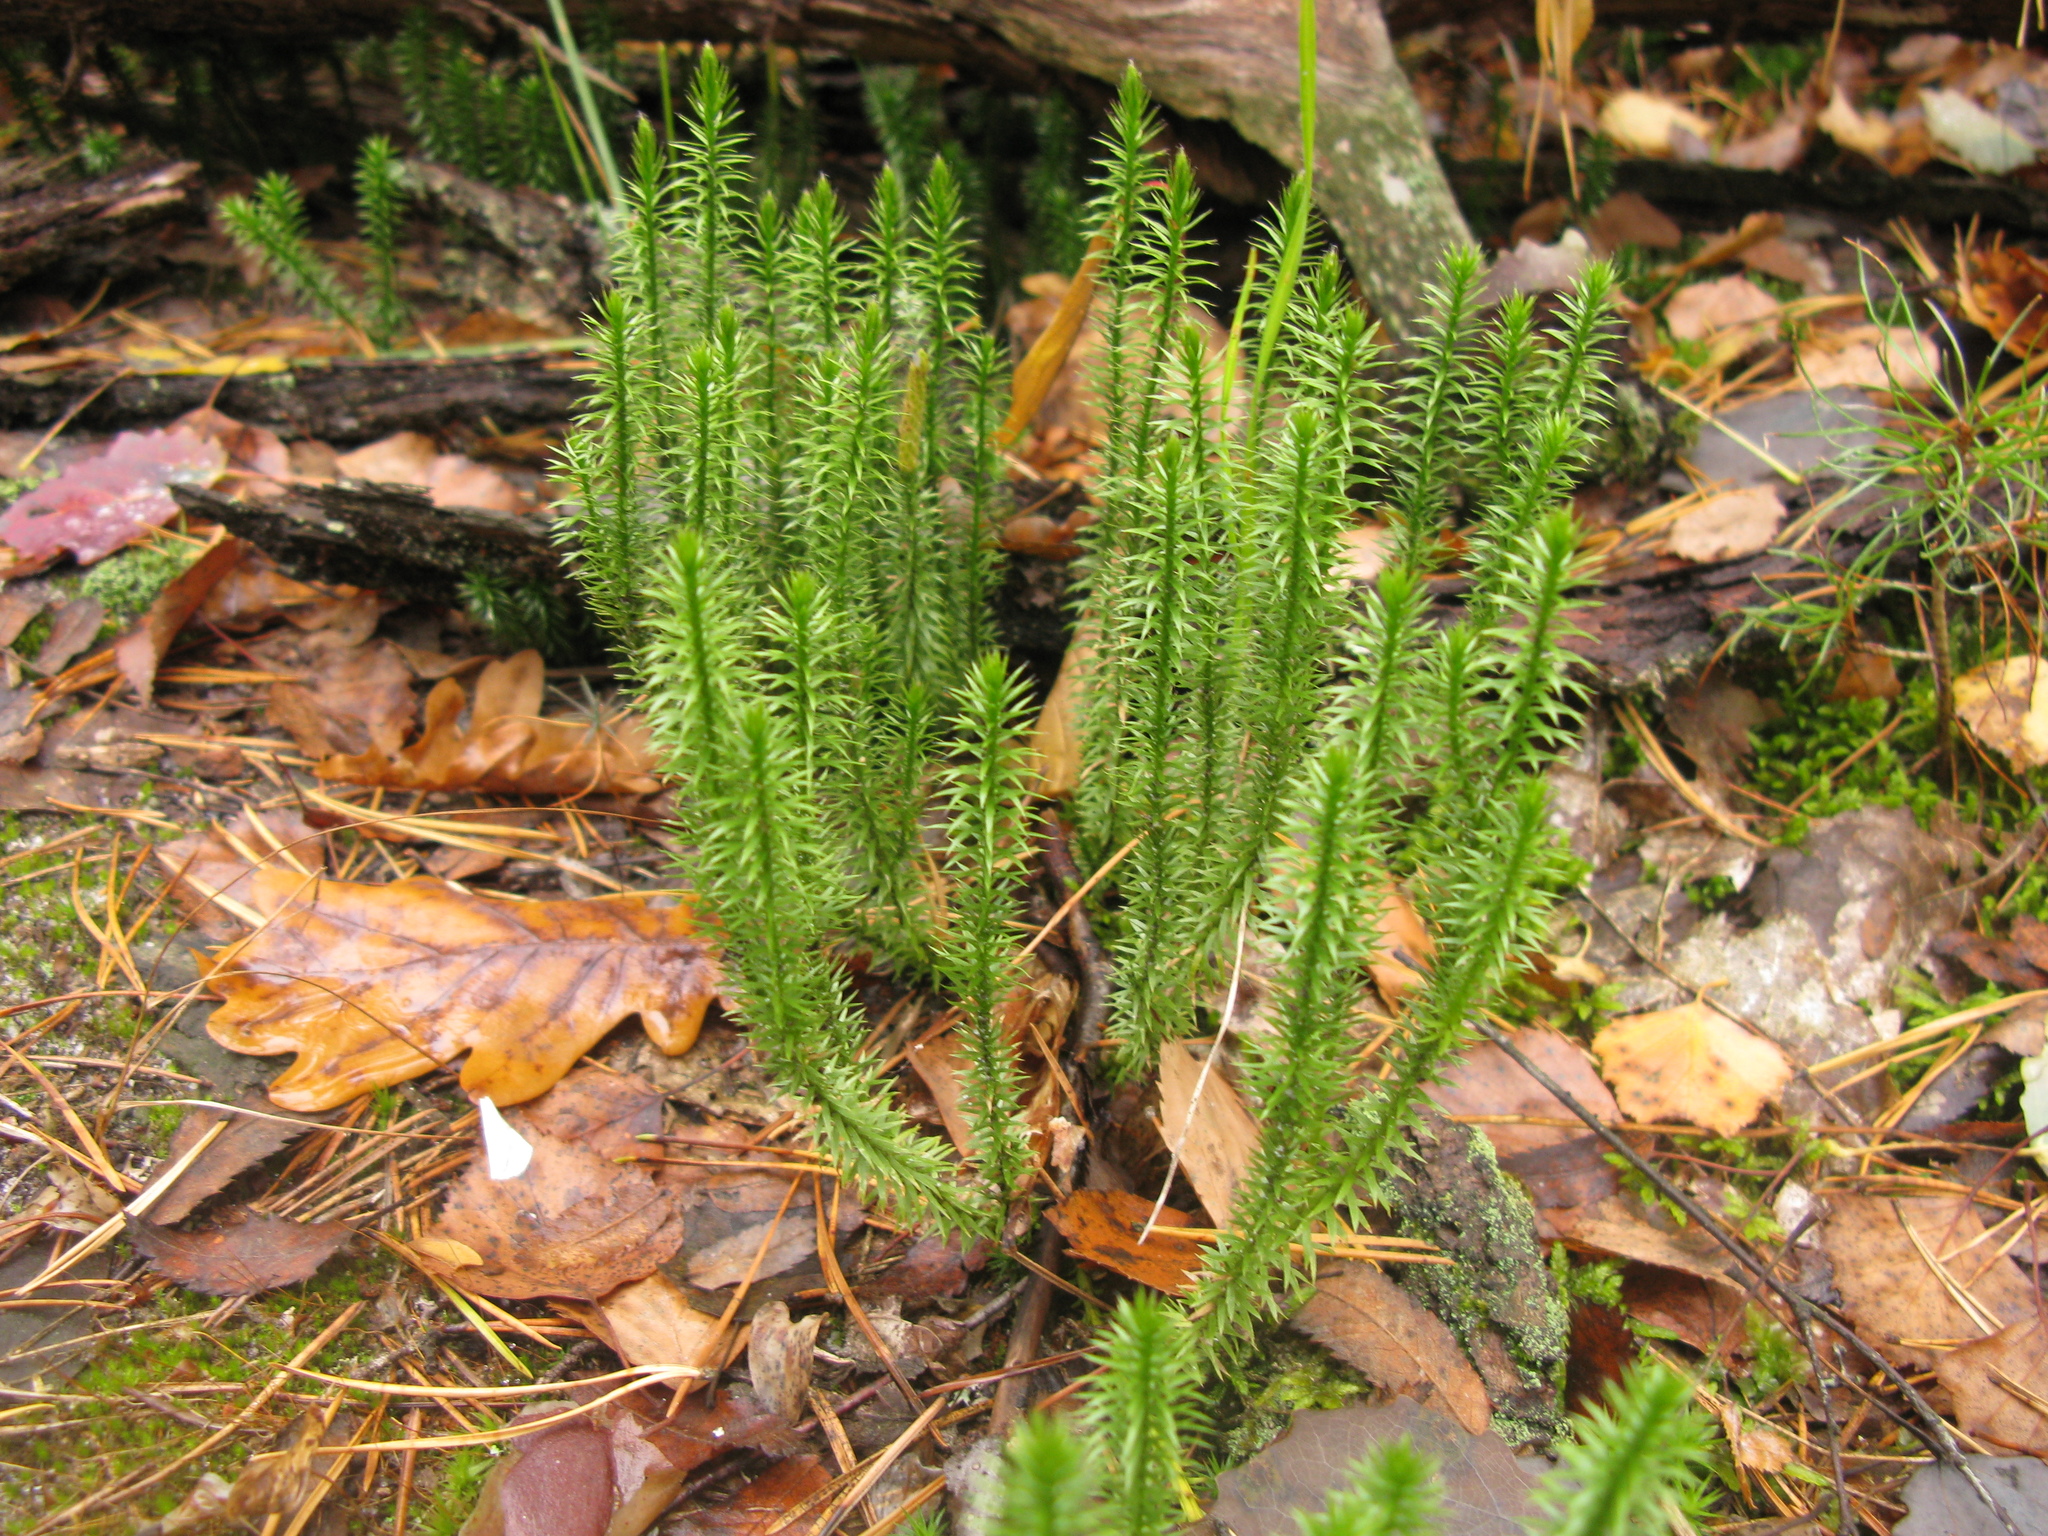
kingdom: Plantae
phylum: Tracheophyta
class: Lycopodiopsida
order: Lycopodiales
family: Lycopodiaceae
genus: Spinulum
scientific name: Spinulum annotinum
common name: Interrupted club-moss
